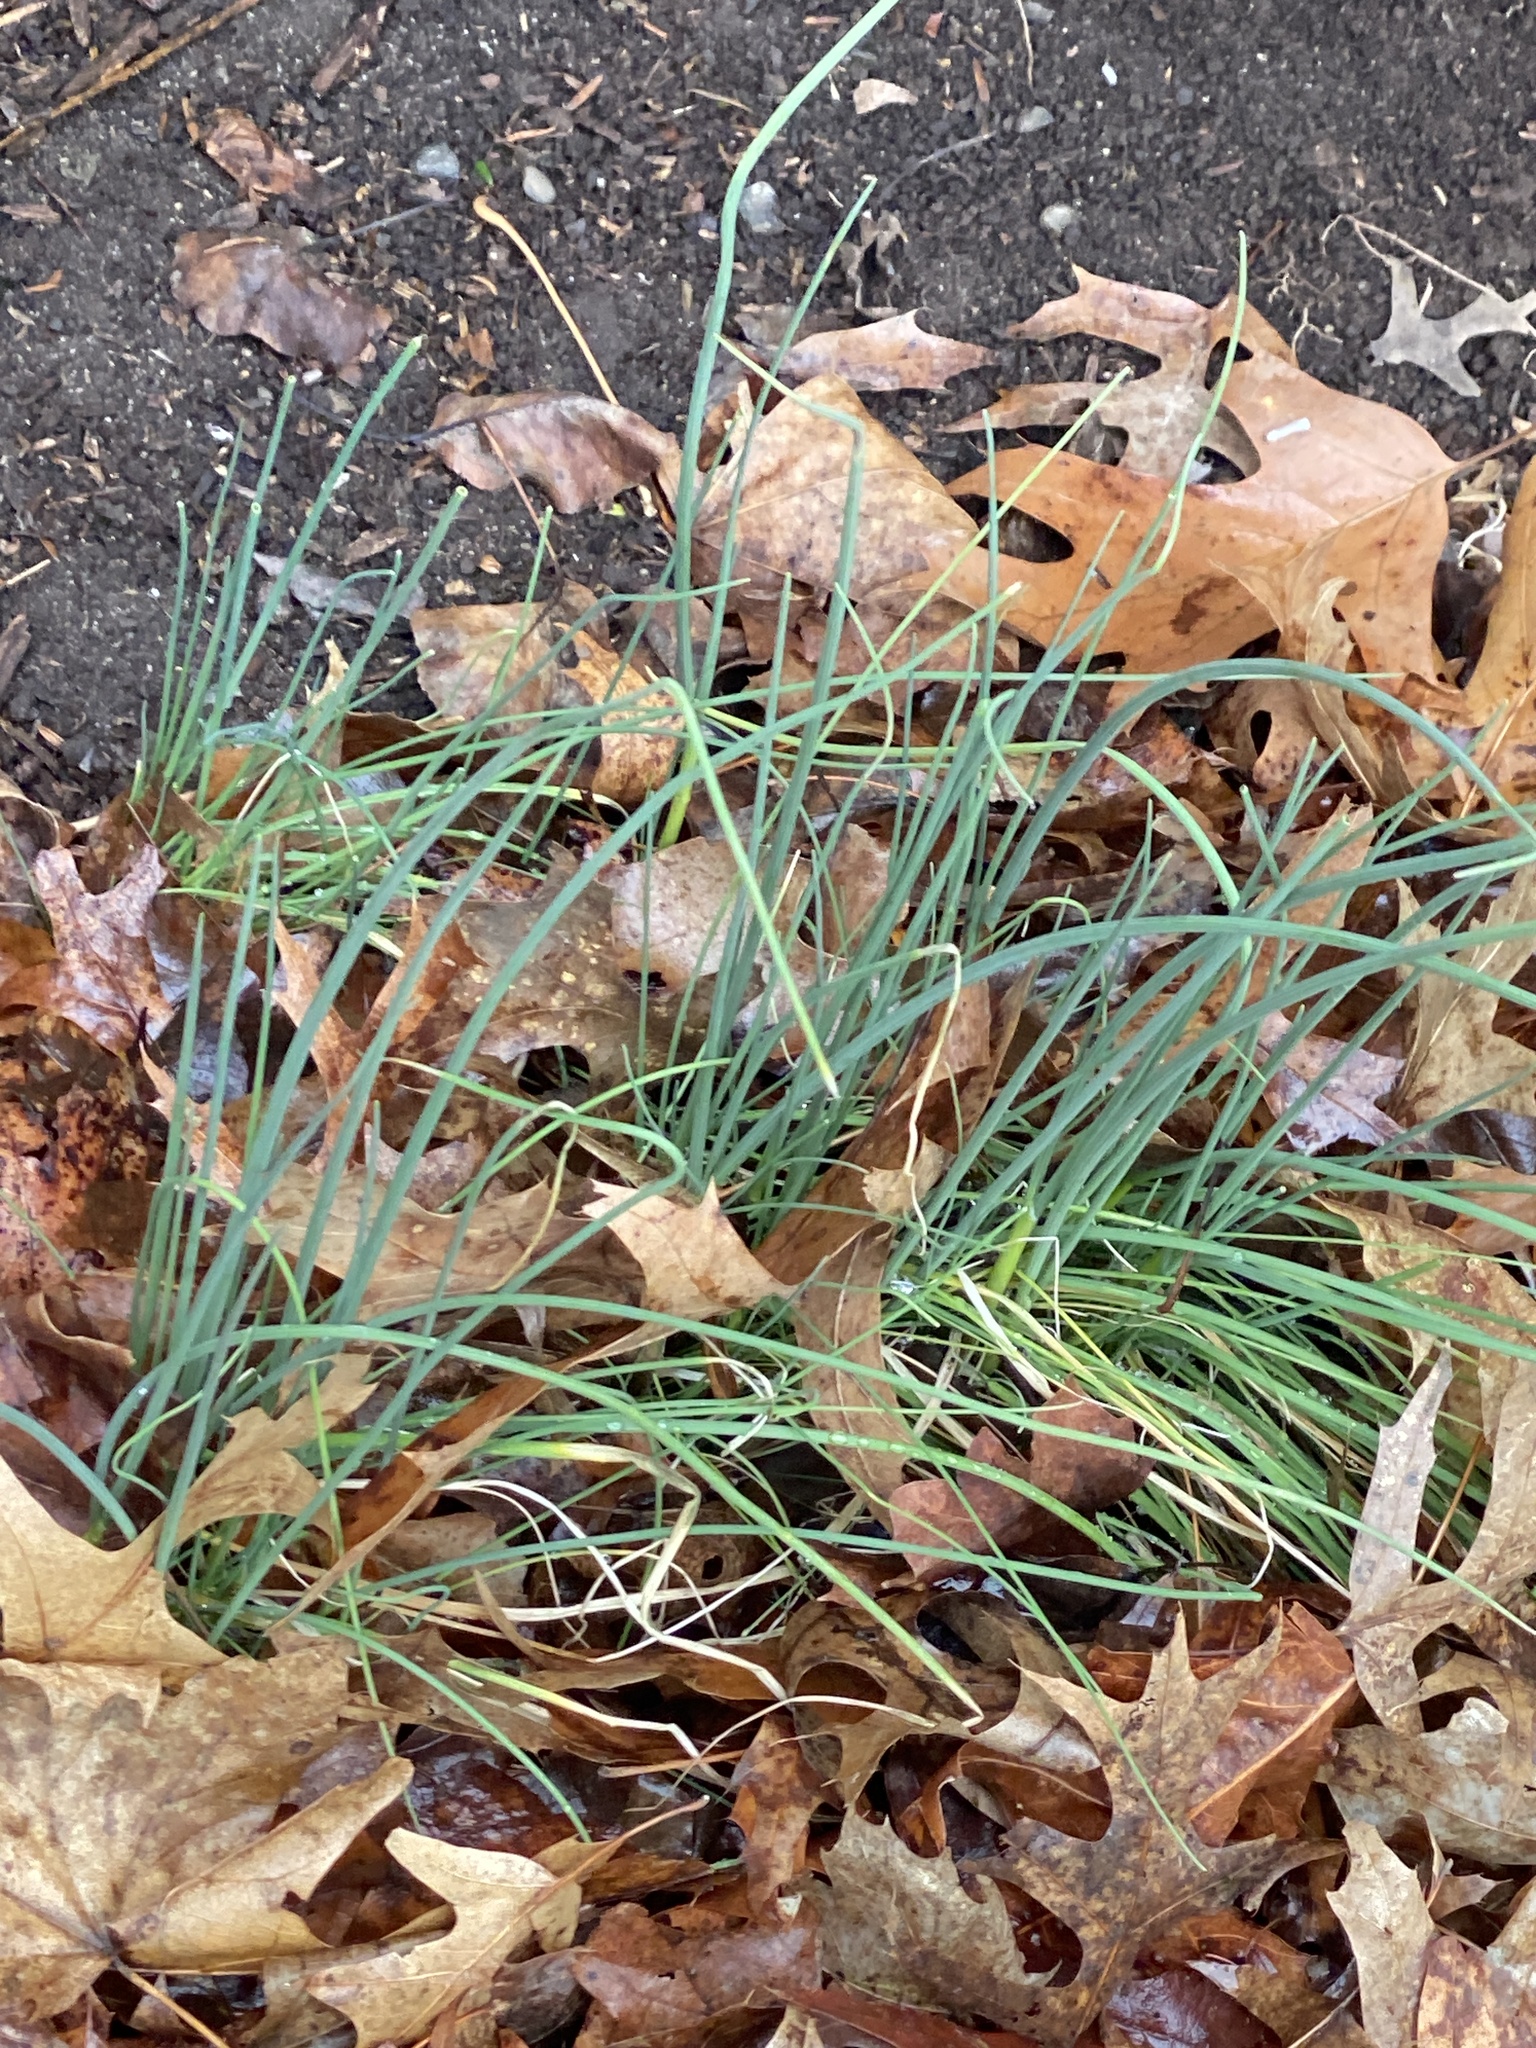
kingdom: Plantae
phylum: Tracheophyta
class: Liliopsida
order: Asparagales
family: Amaryllidaceae
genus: Allium
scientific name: Allium vineale
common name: Crow garlic
